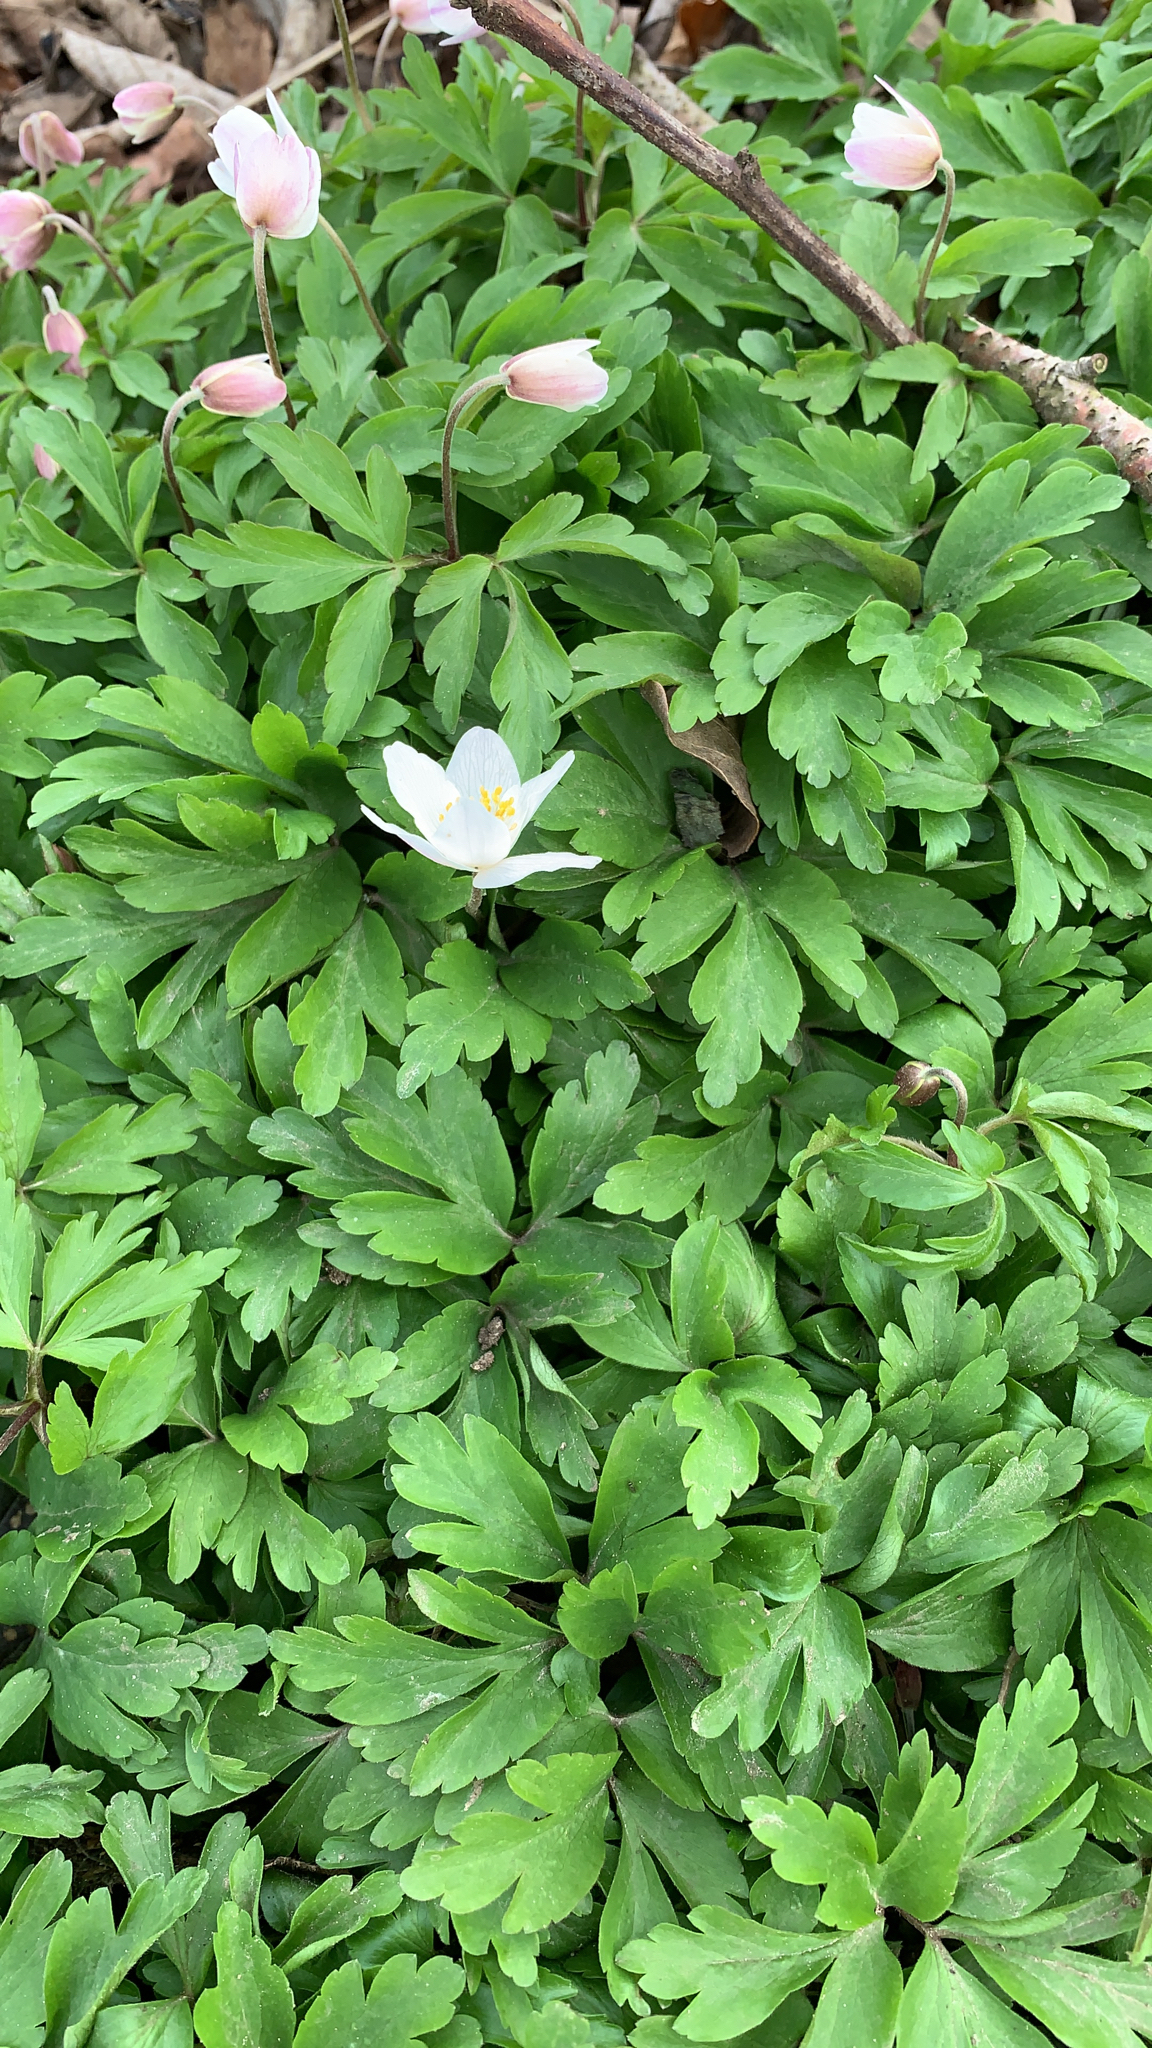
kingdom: Plantae
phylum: Tracheophyta
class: Magnoliopsida
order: Ranunculales
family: Ranunculaceae
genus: Anemone
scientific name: Anemone nemorosa
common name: Wood anemone
